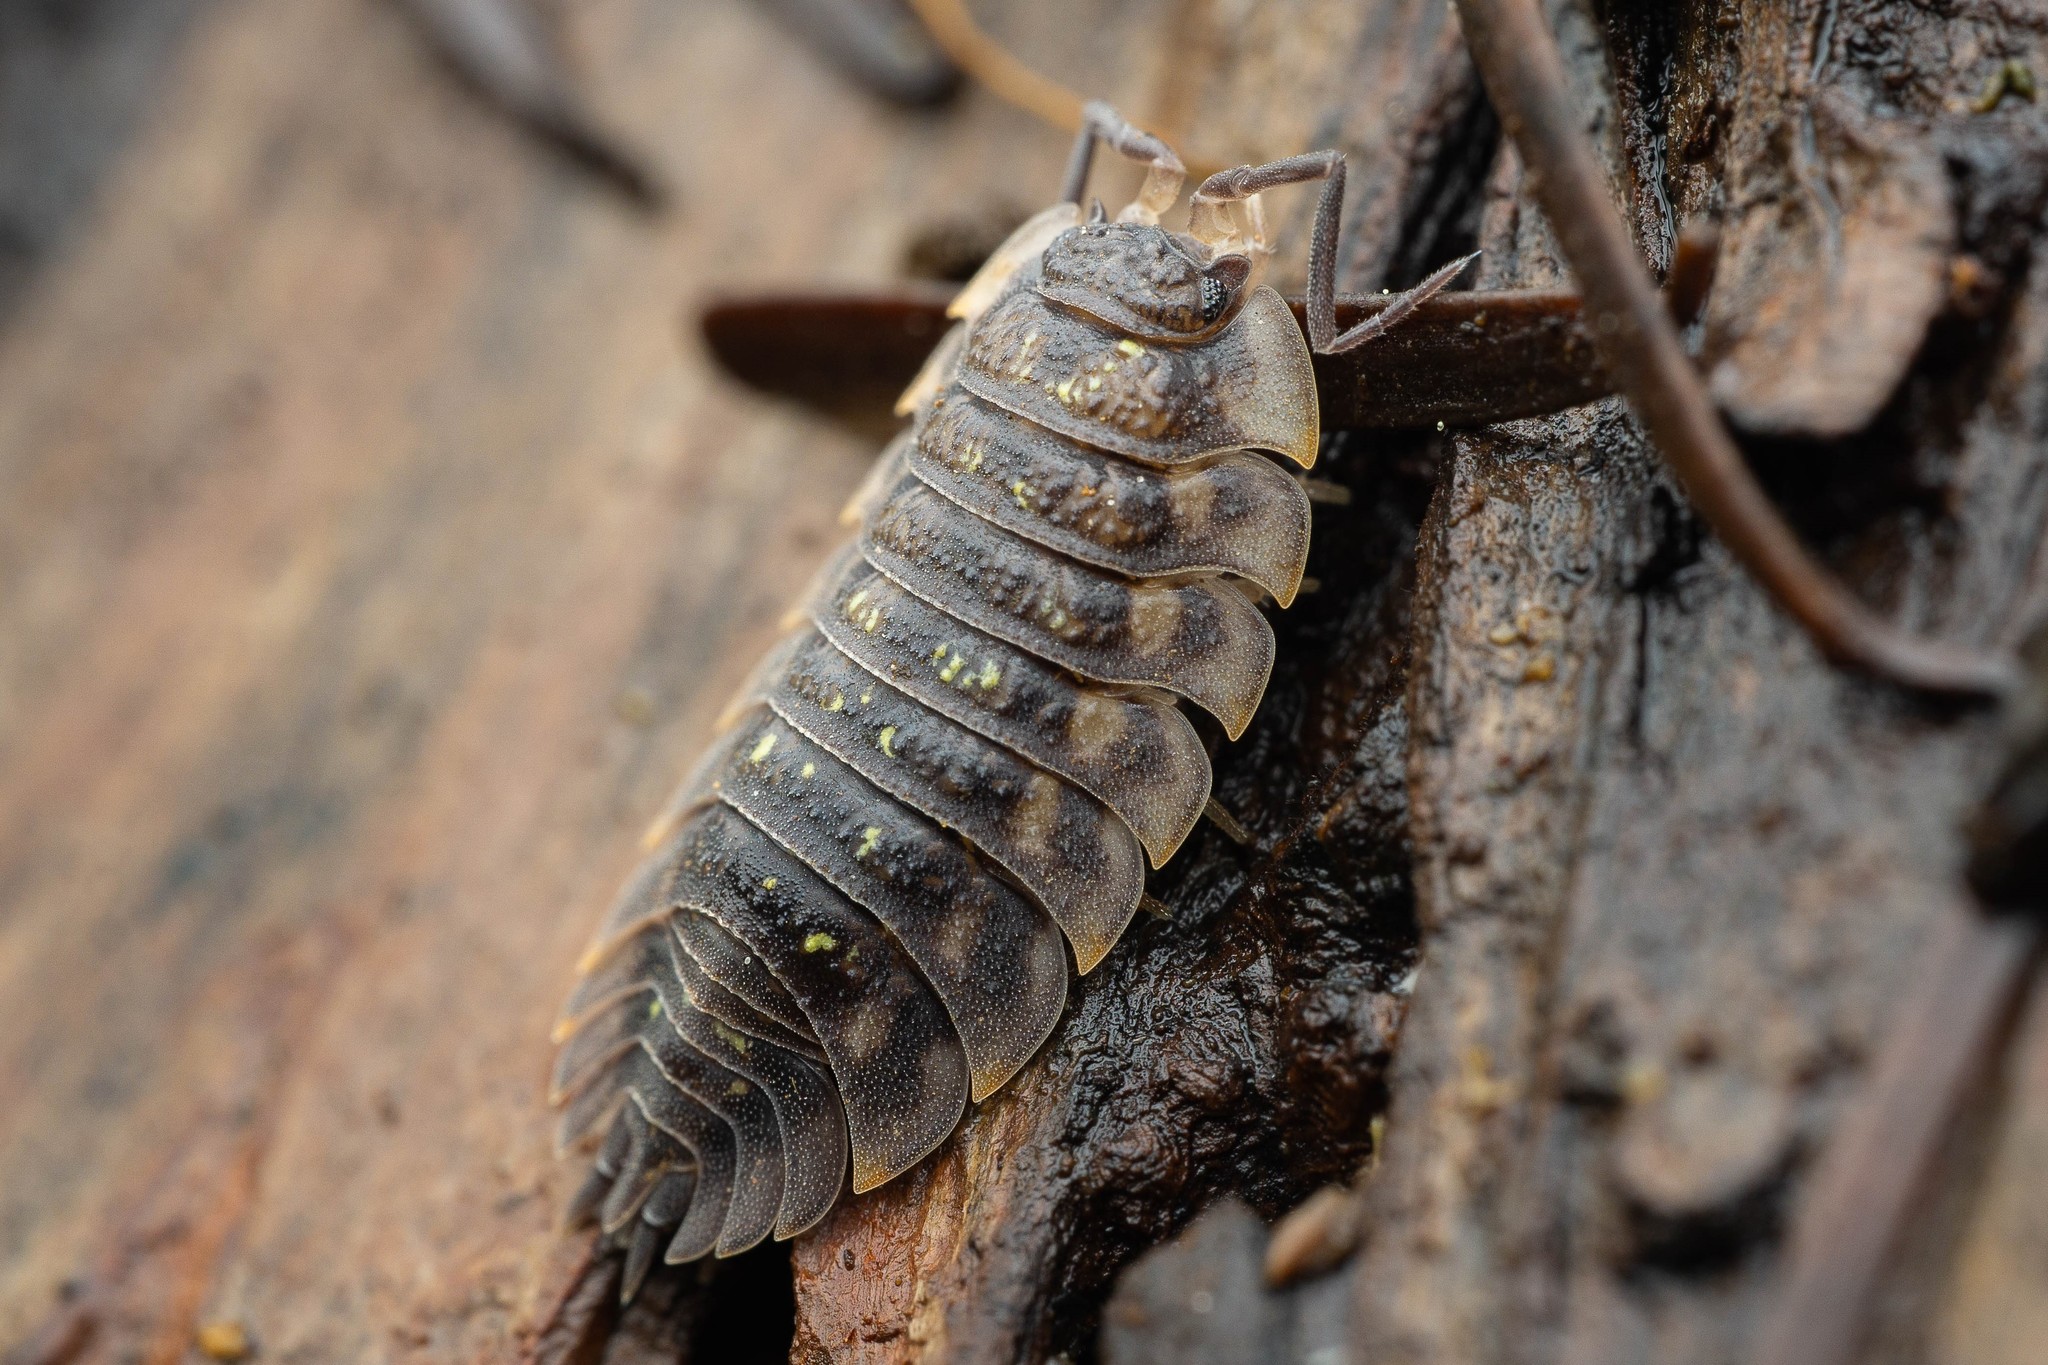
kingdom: Animalia
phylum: Arthropoda
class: Malacostraca
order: Isopoda
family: Oniscidae
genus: Oniscus
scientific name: Oniscus asellus
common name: Common shiny woodlouse
